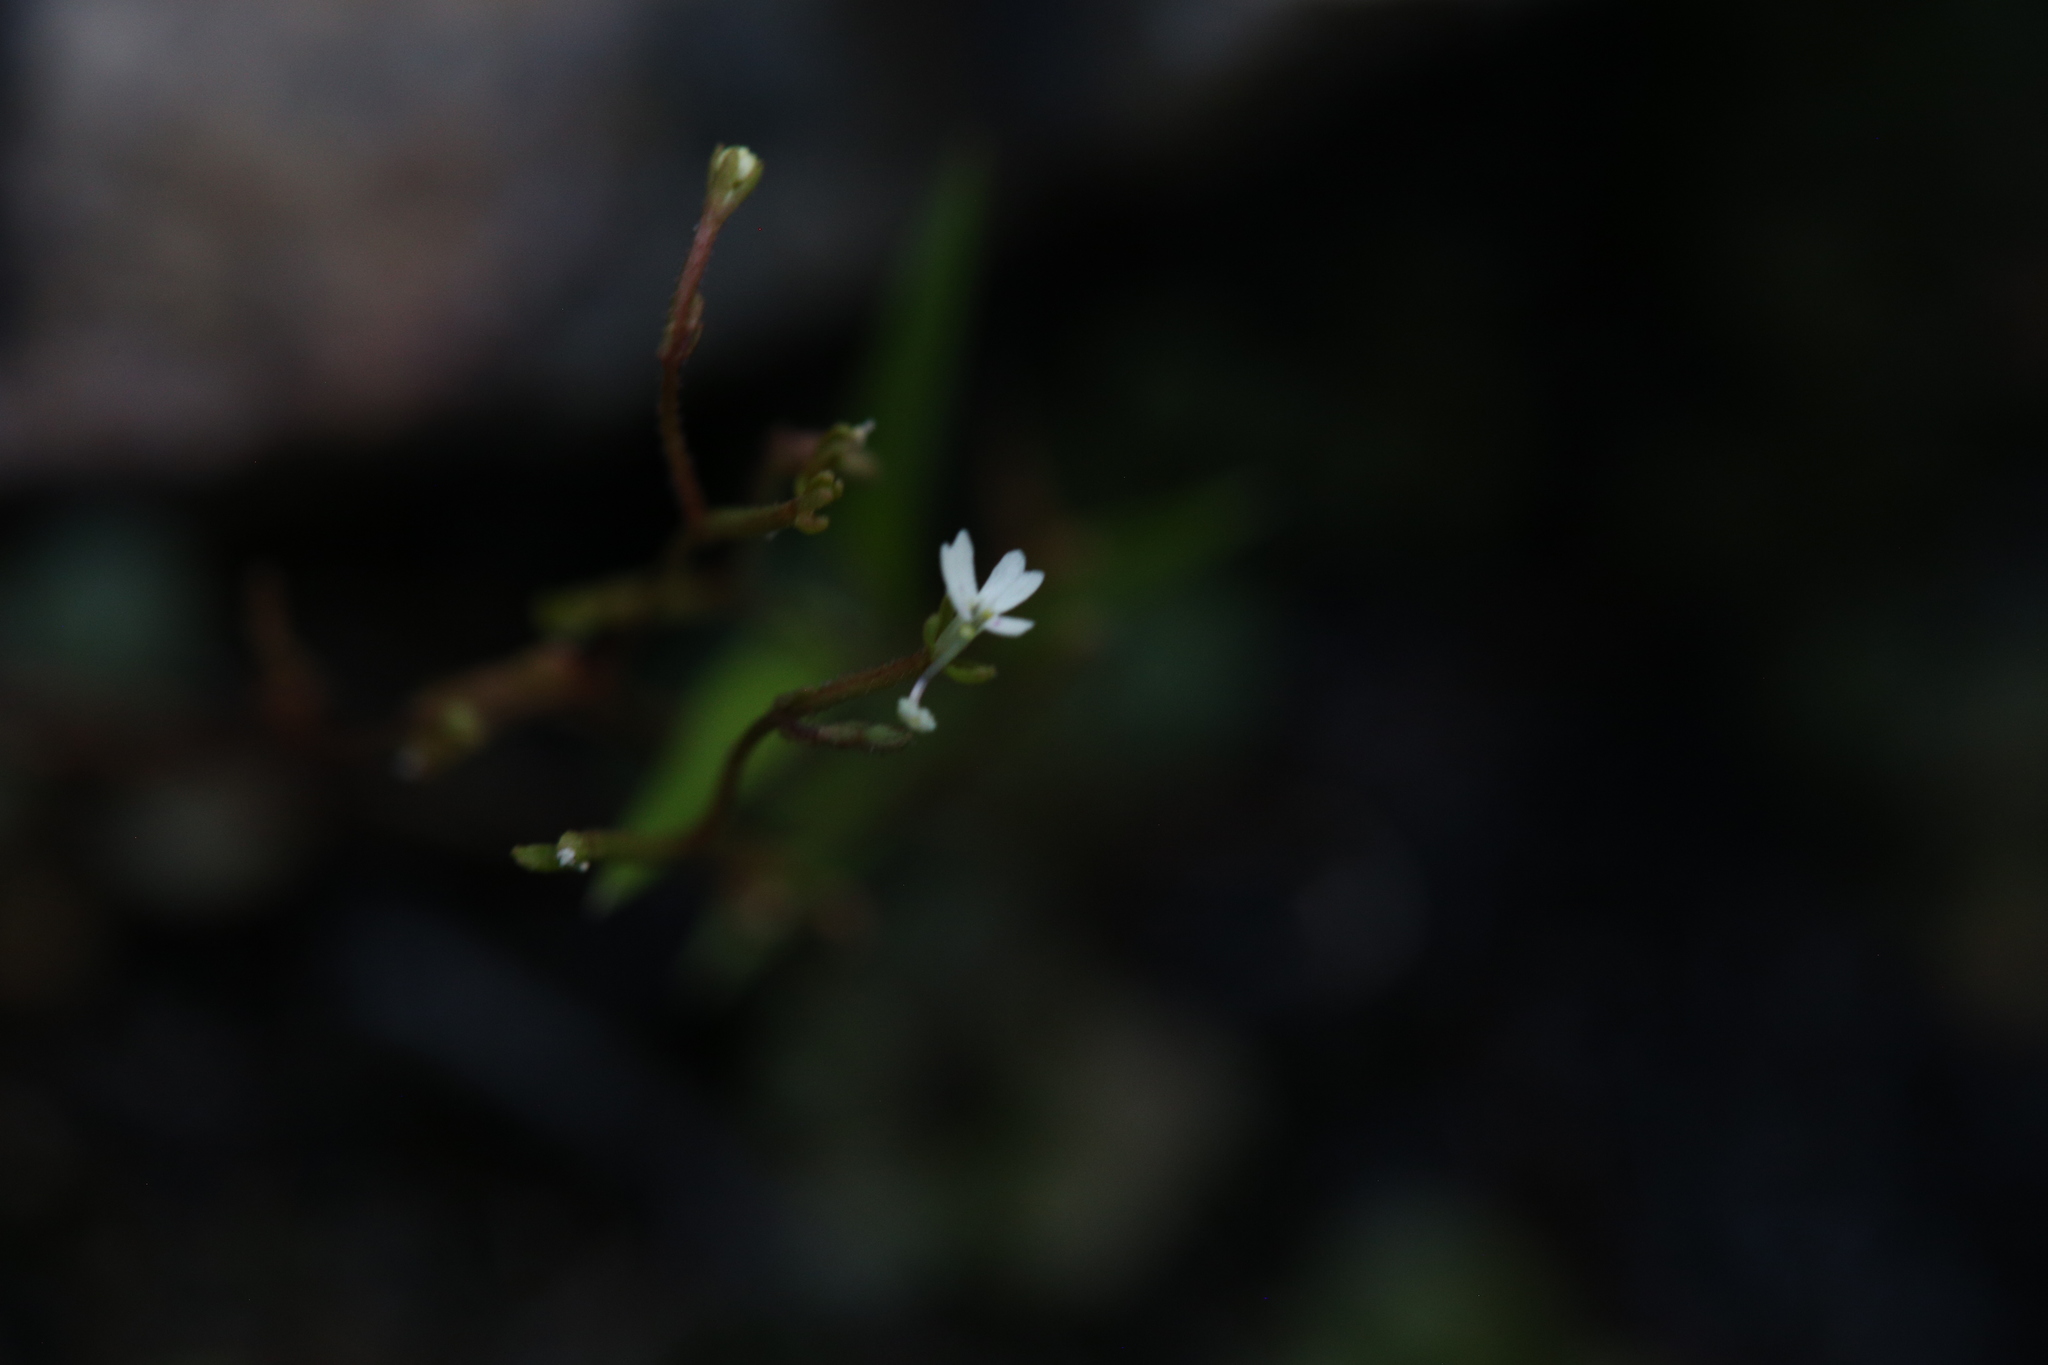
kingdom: Plantae
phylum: Tracheophyta
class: Magnoliopsida
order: Asterales
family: Stylidiaceae
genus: Stylidium
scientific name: Stylidium tenerum
